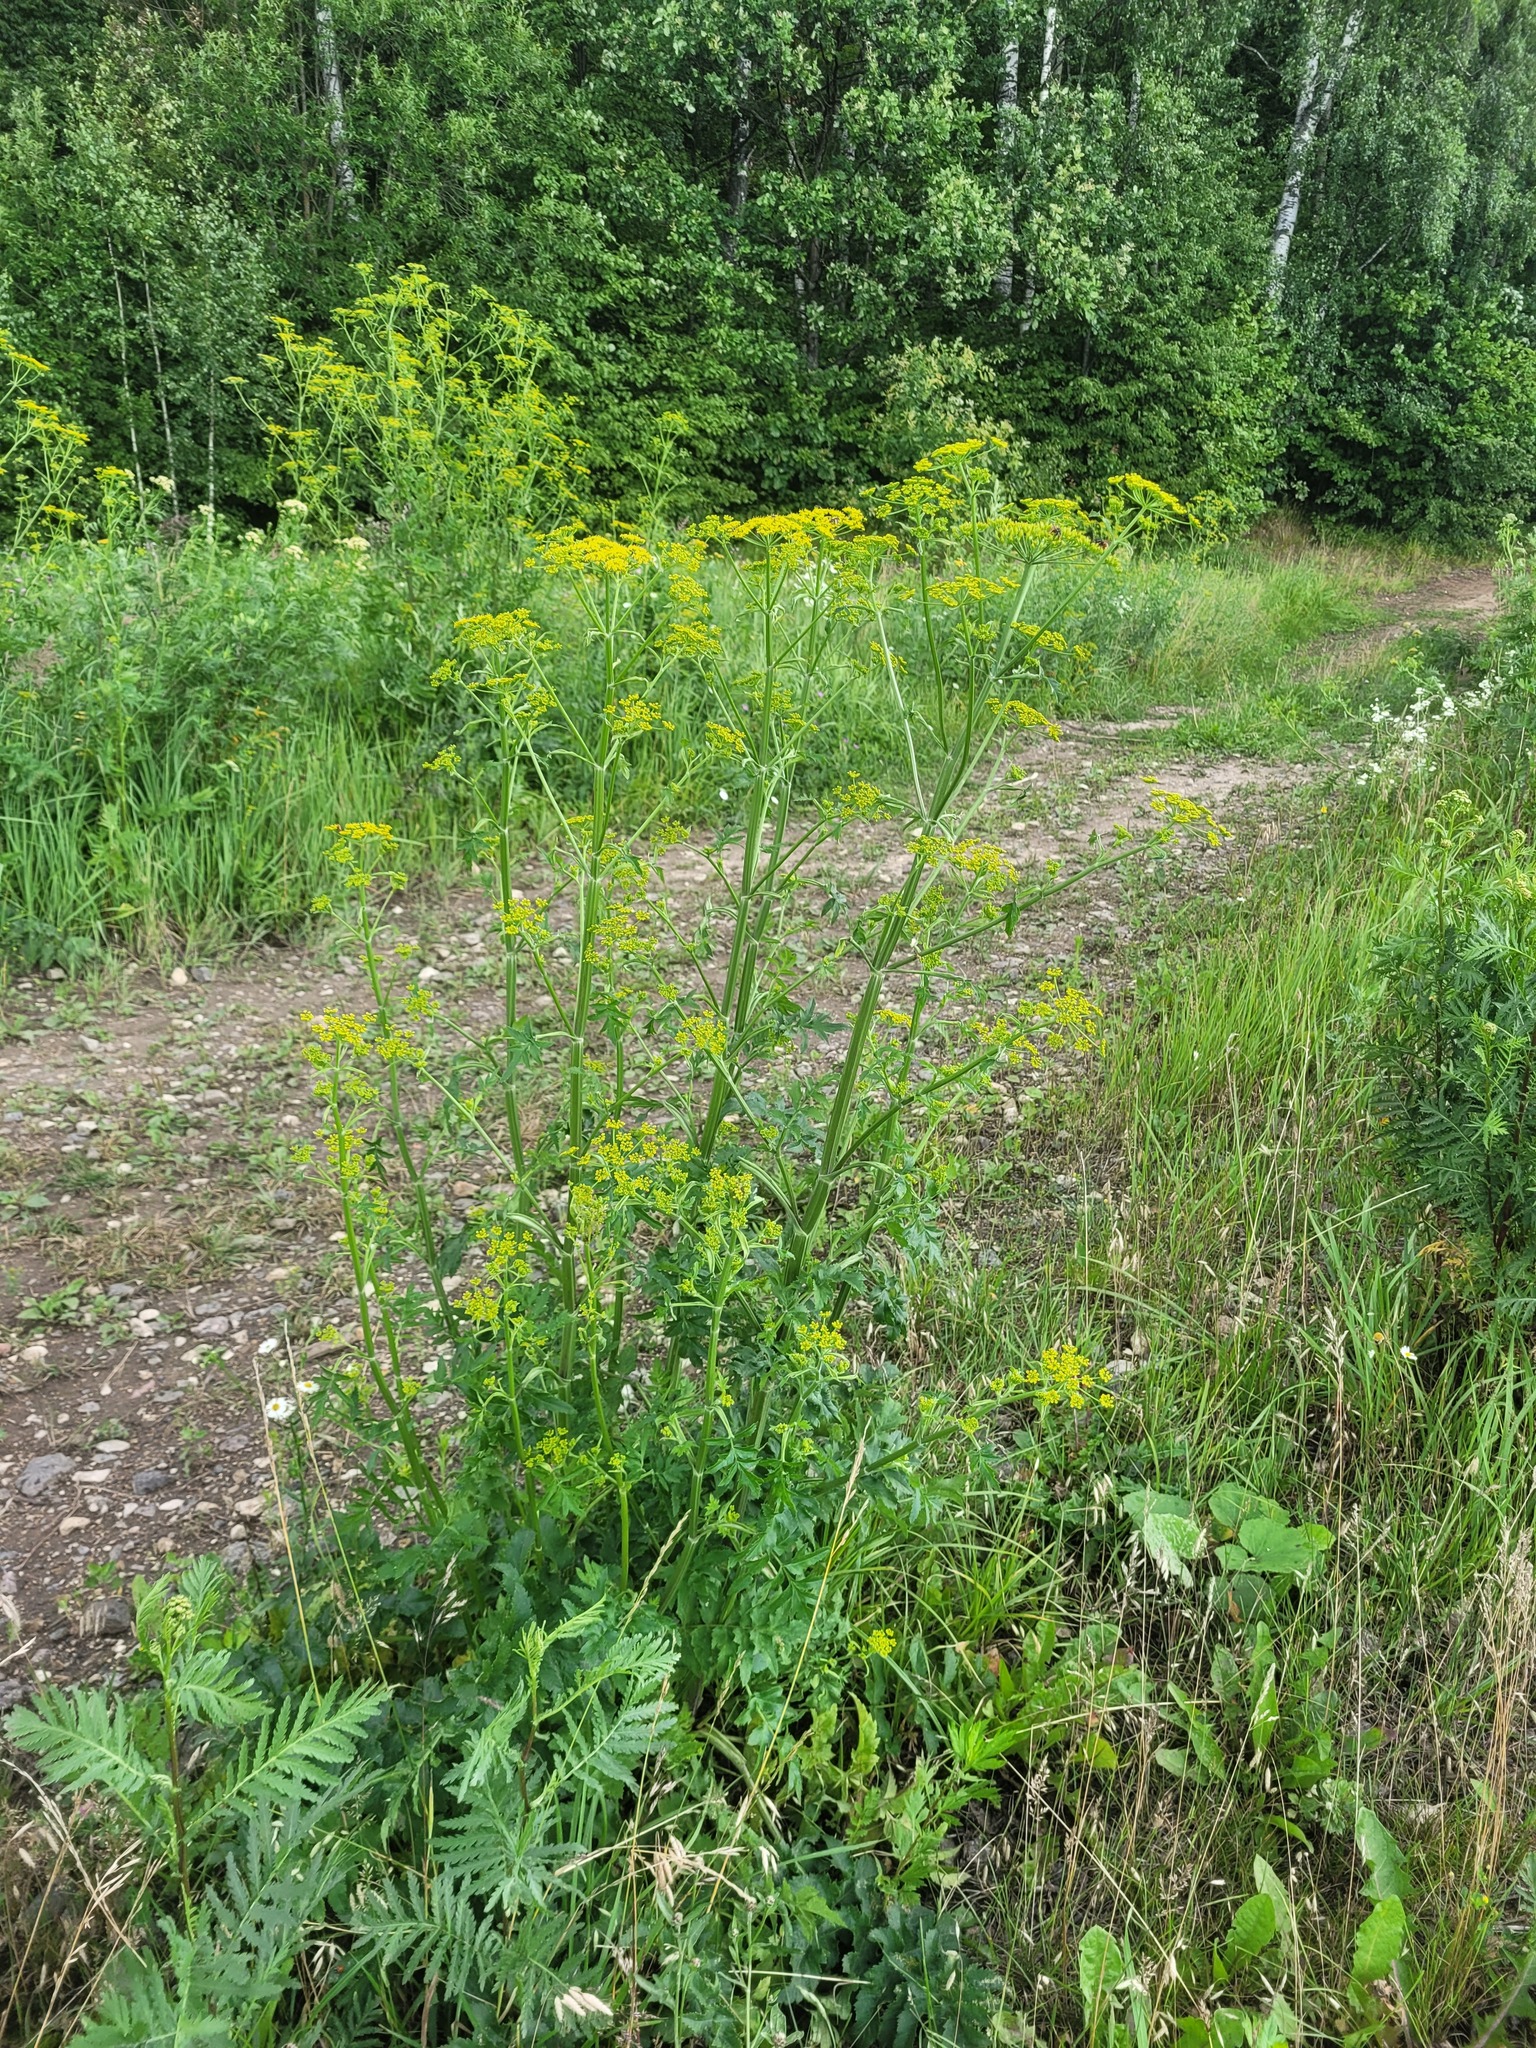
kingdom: Plantae
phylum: Tracheophyta
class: Magnoliopsida
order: Apiales
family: Apiaceae
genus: Pastinaca
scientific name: Pastinaca sativa
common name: Wild parsnip
